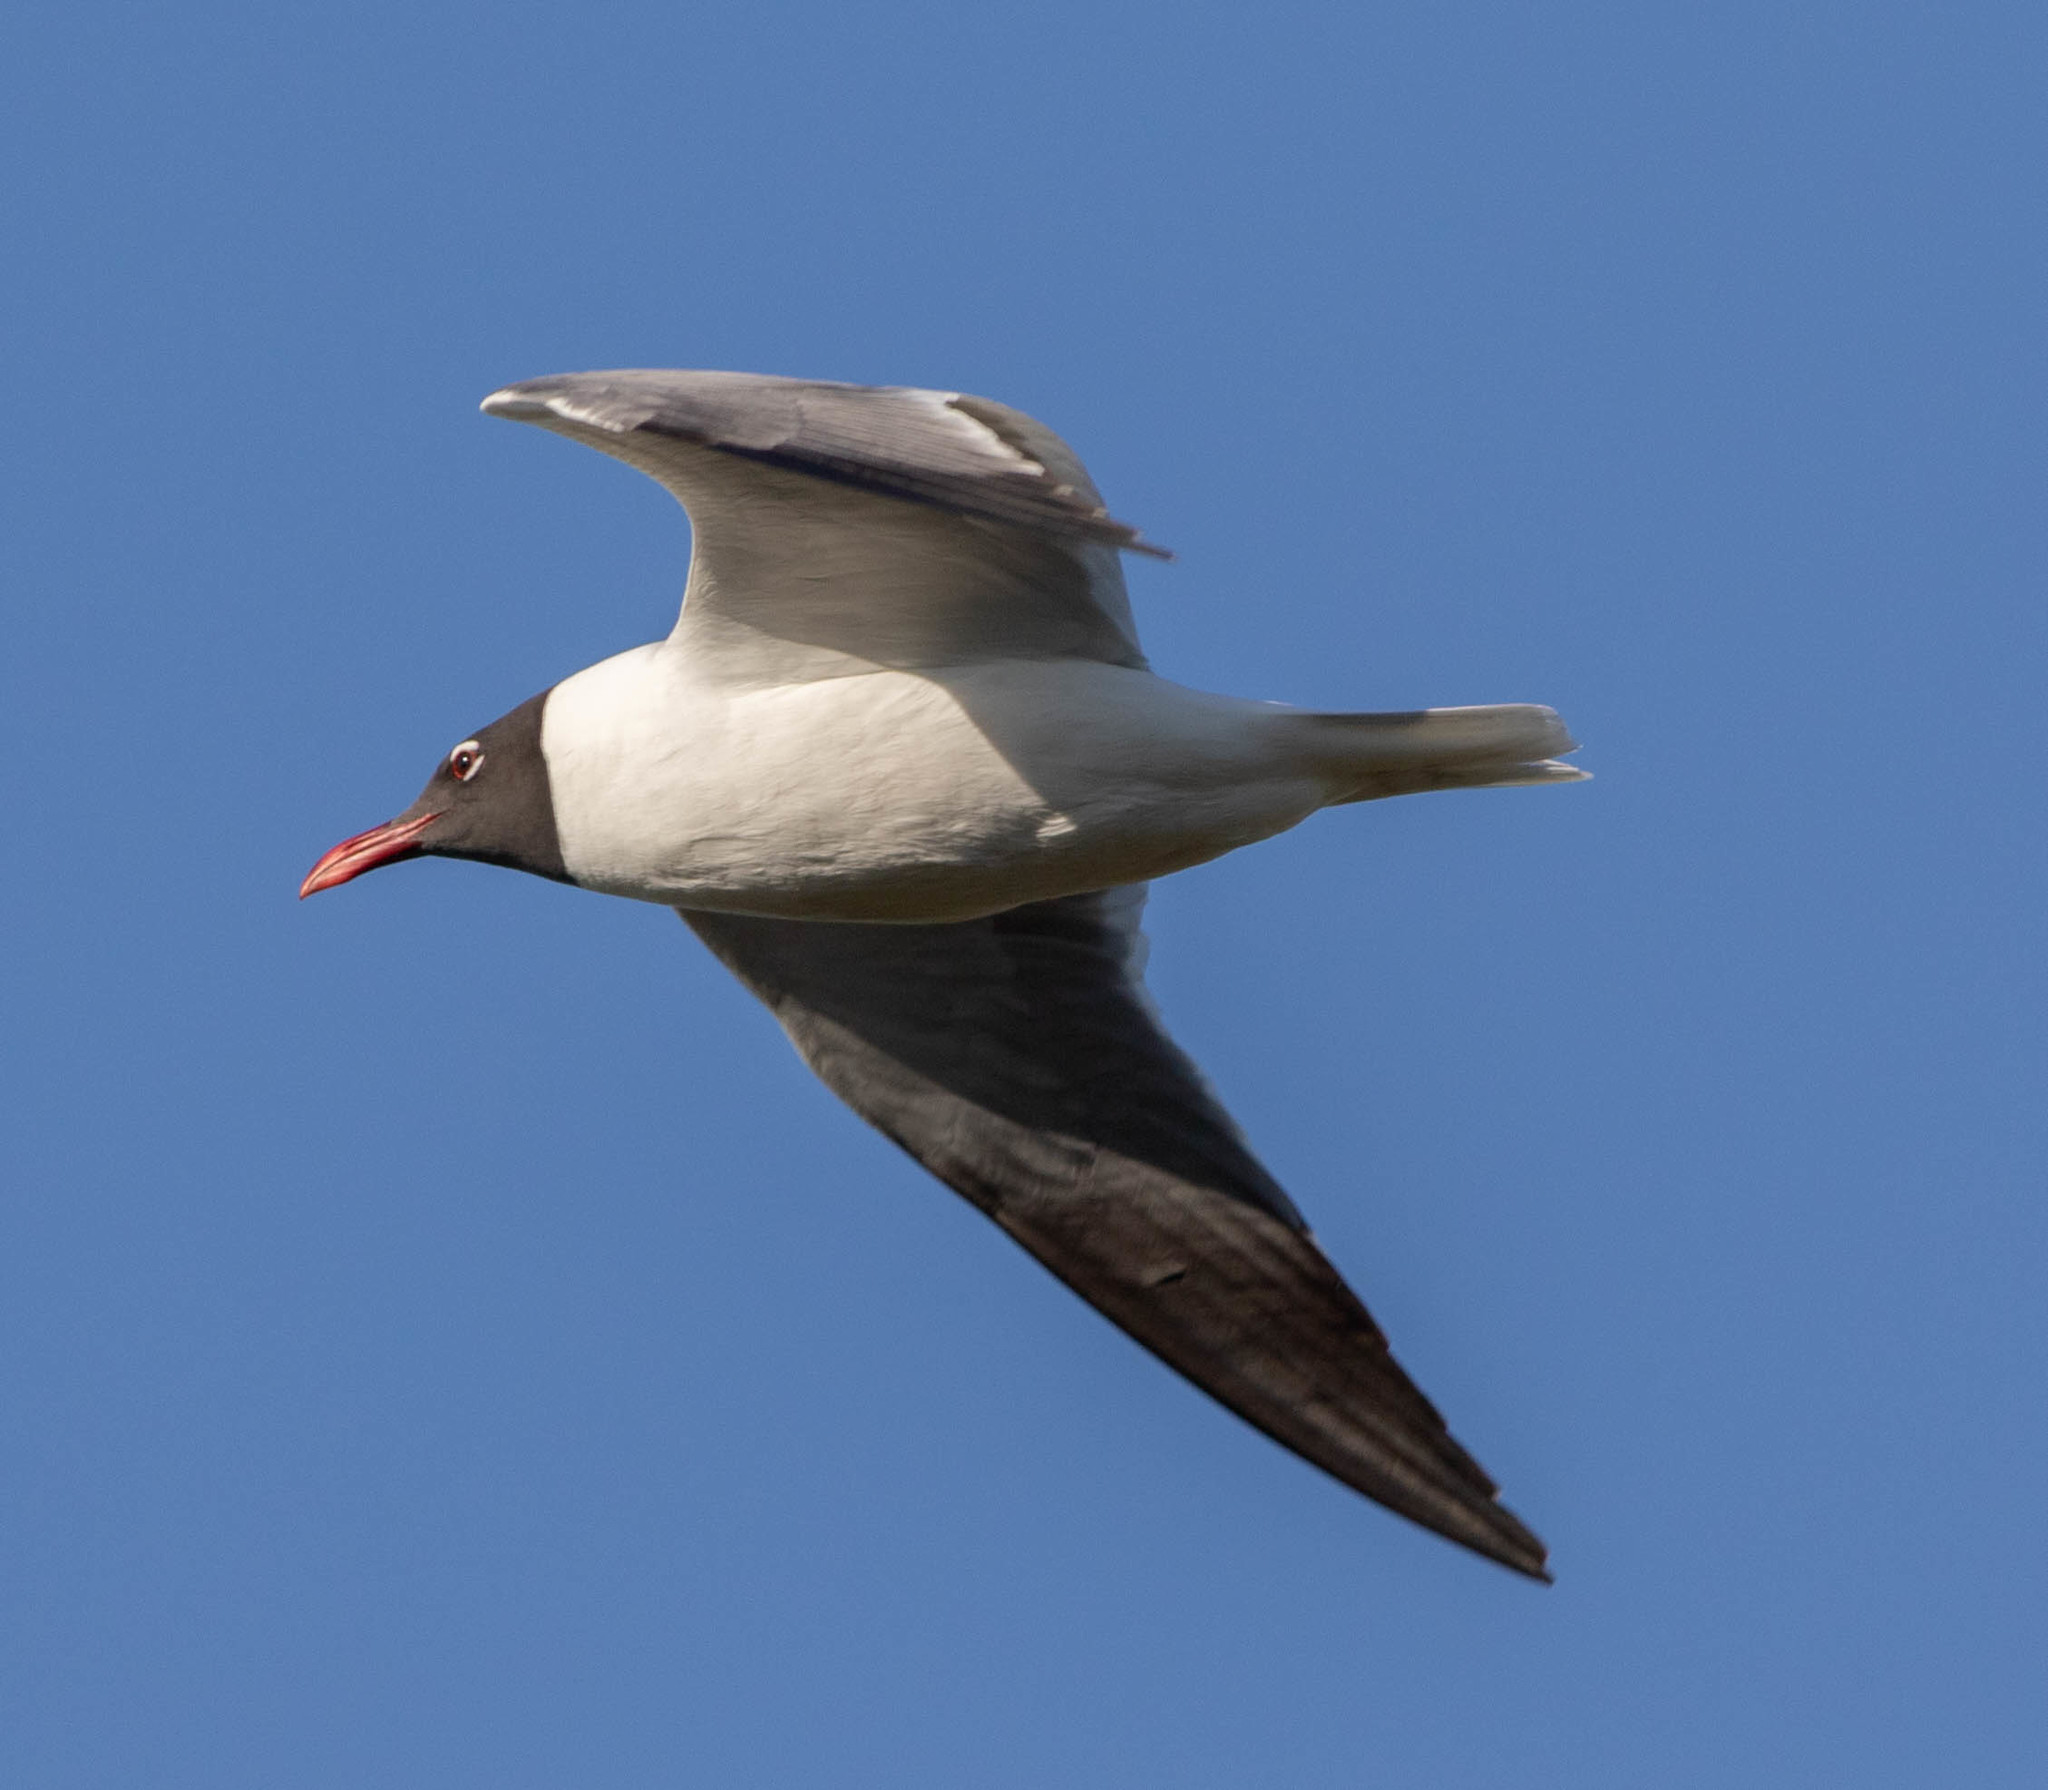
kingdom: Animalia
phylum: Chordata
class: Aves
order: Charadriiformes
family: Laridae
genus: Leucophaeus
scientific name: Leucophaeus atricilla
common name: Laughing gull
